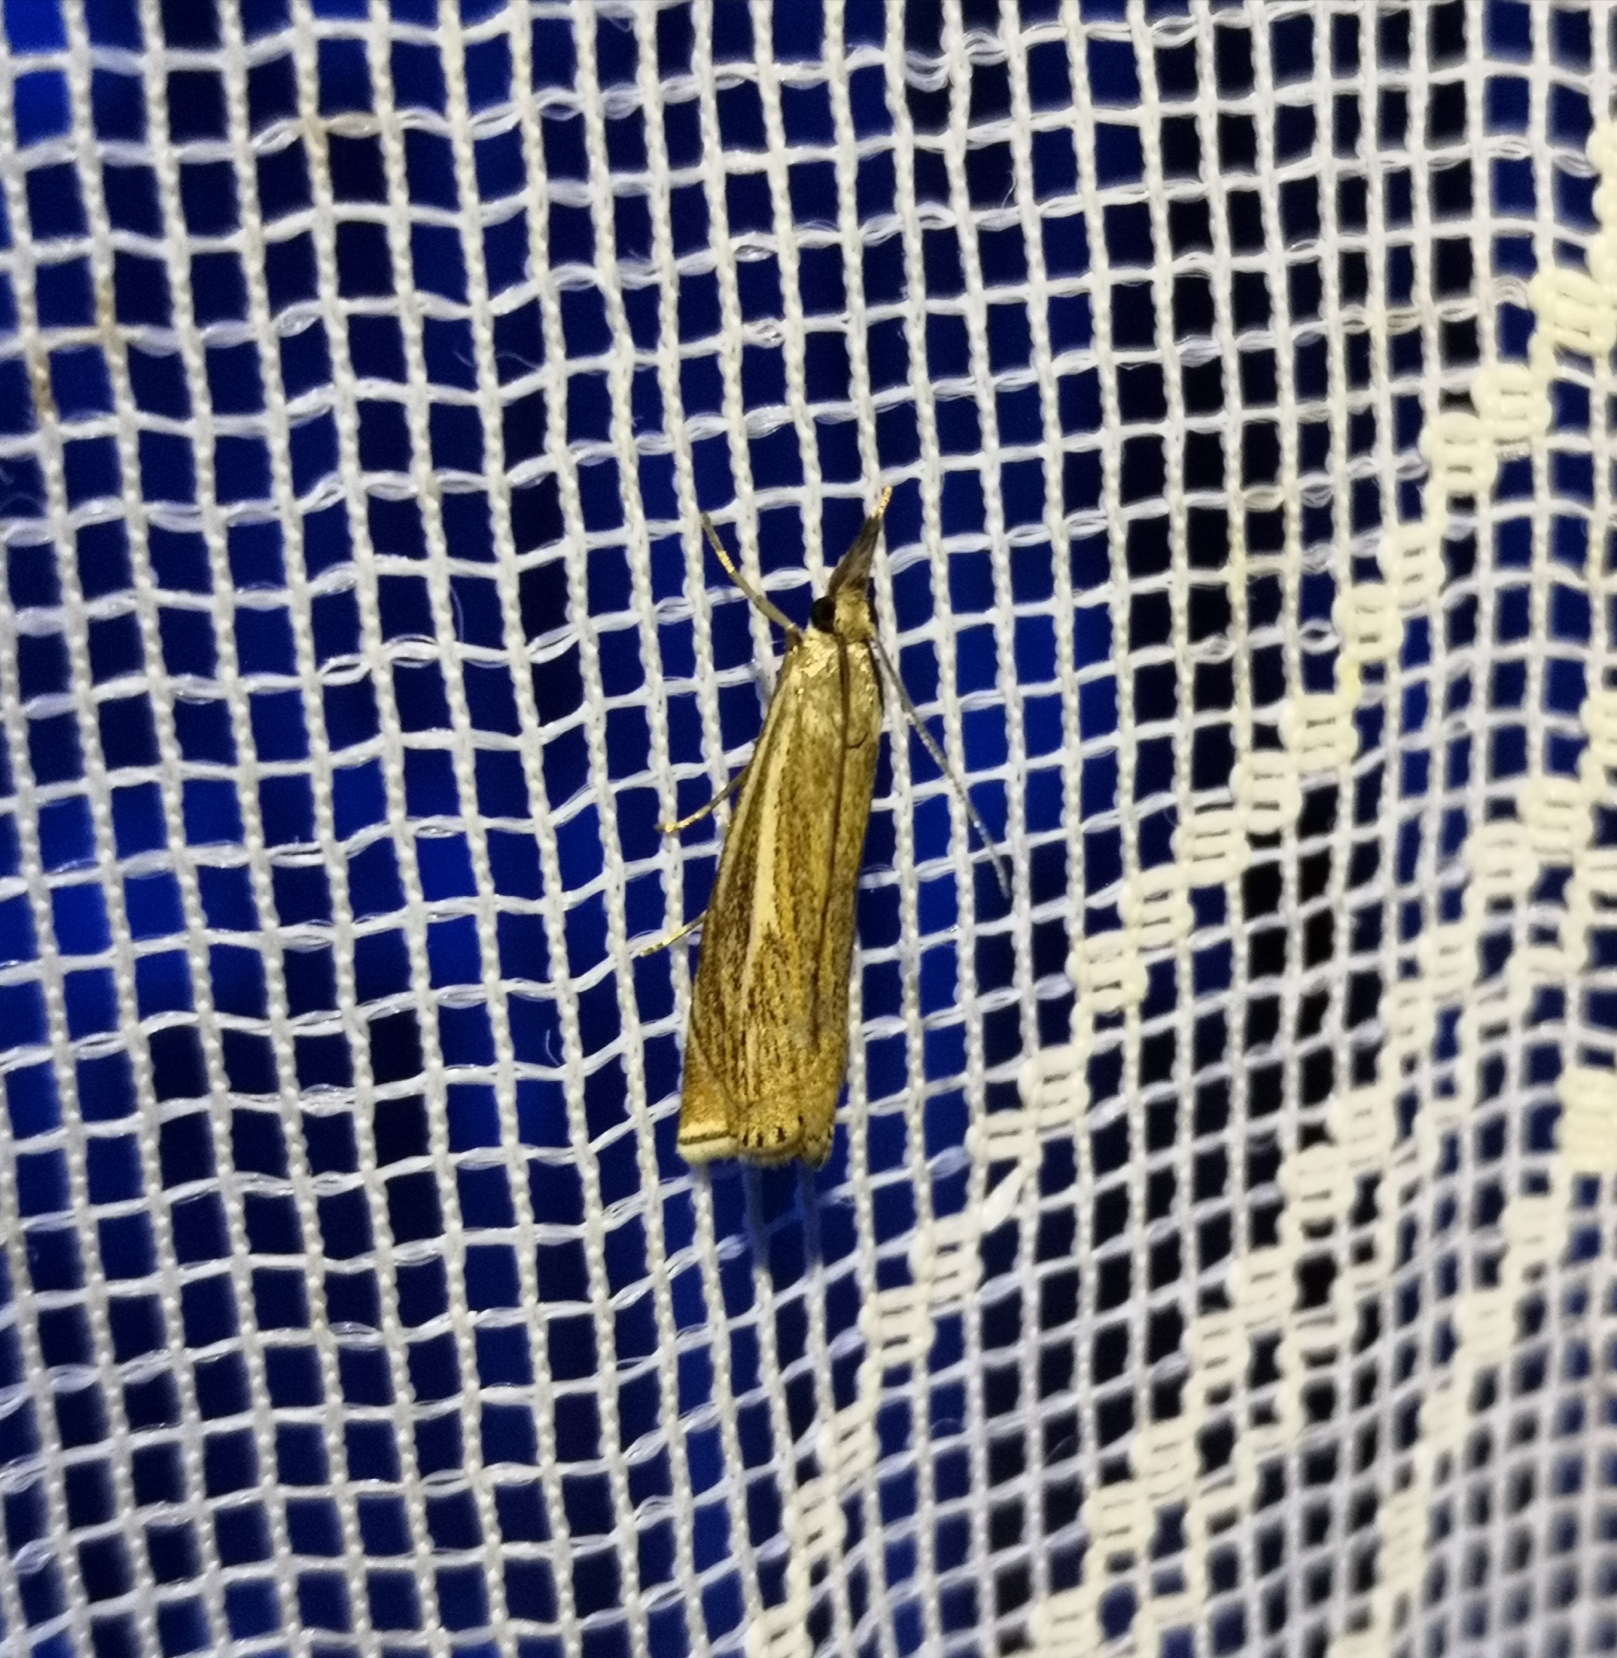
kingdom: Animalia
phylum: Arthropoda
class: Insecta
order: Lepidoptera
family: Crambidae
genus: Crambus
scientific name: Crambus nemorella
